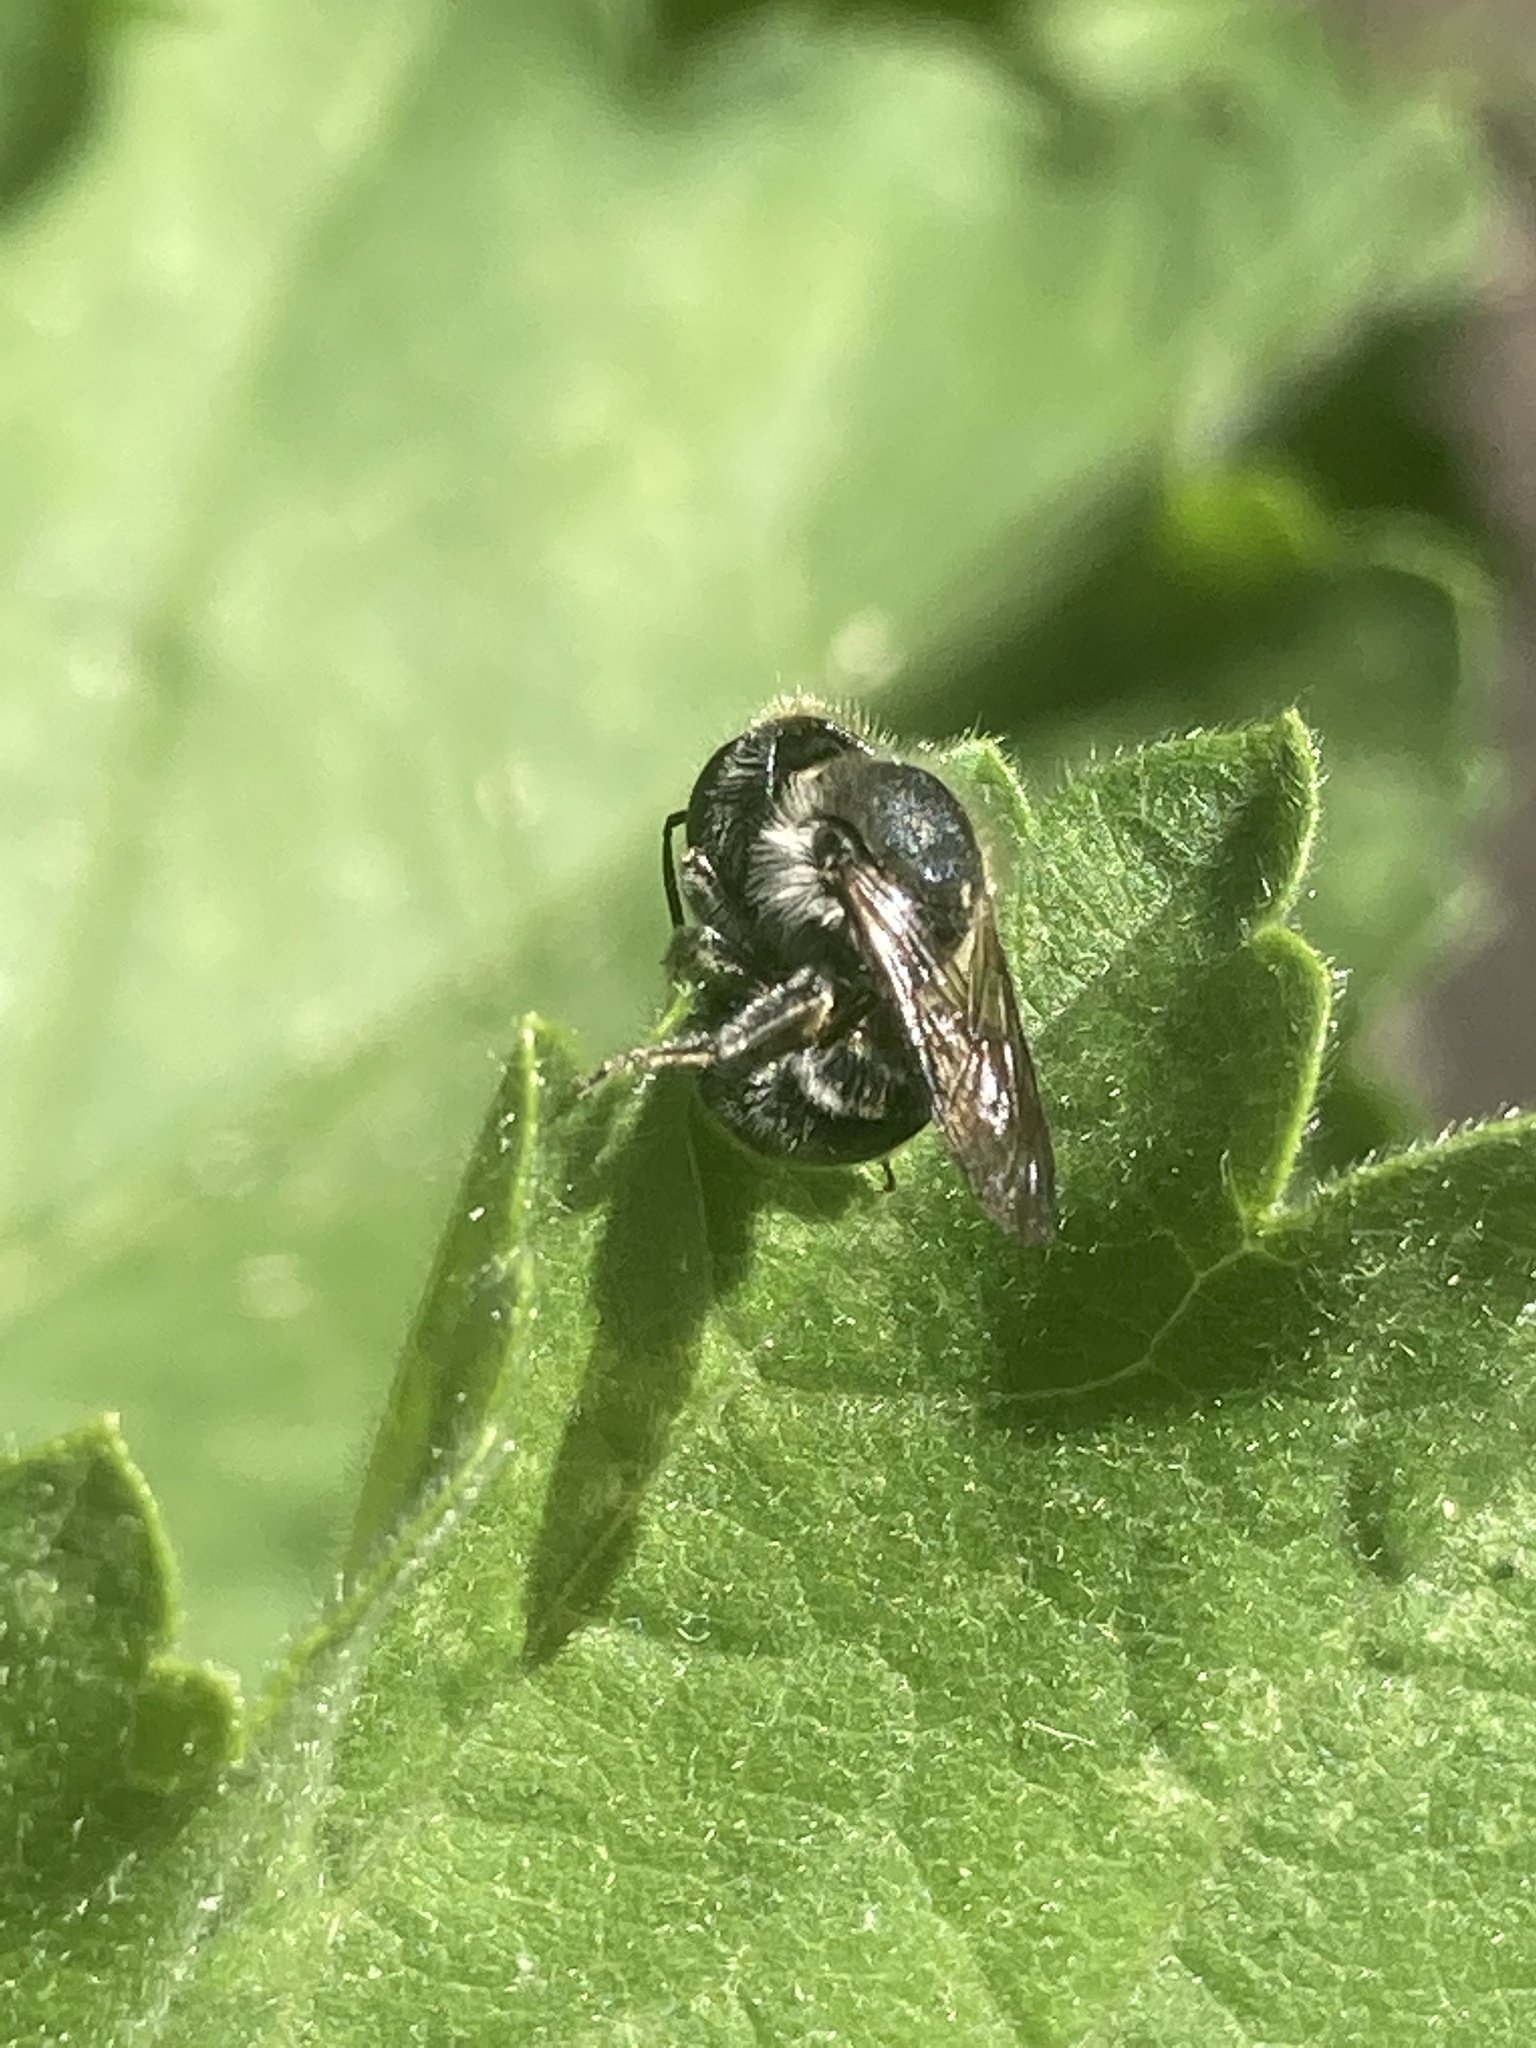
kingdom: Animalia
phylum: Arthropoda
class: Insecta
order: Hymenoptera
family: Megachilidae
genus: Osmia
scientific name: Osmia caerulescens
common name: Blue mason bee
